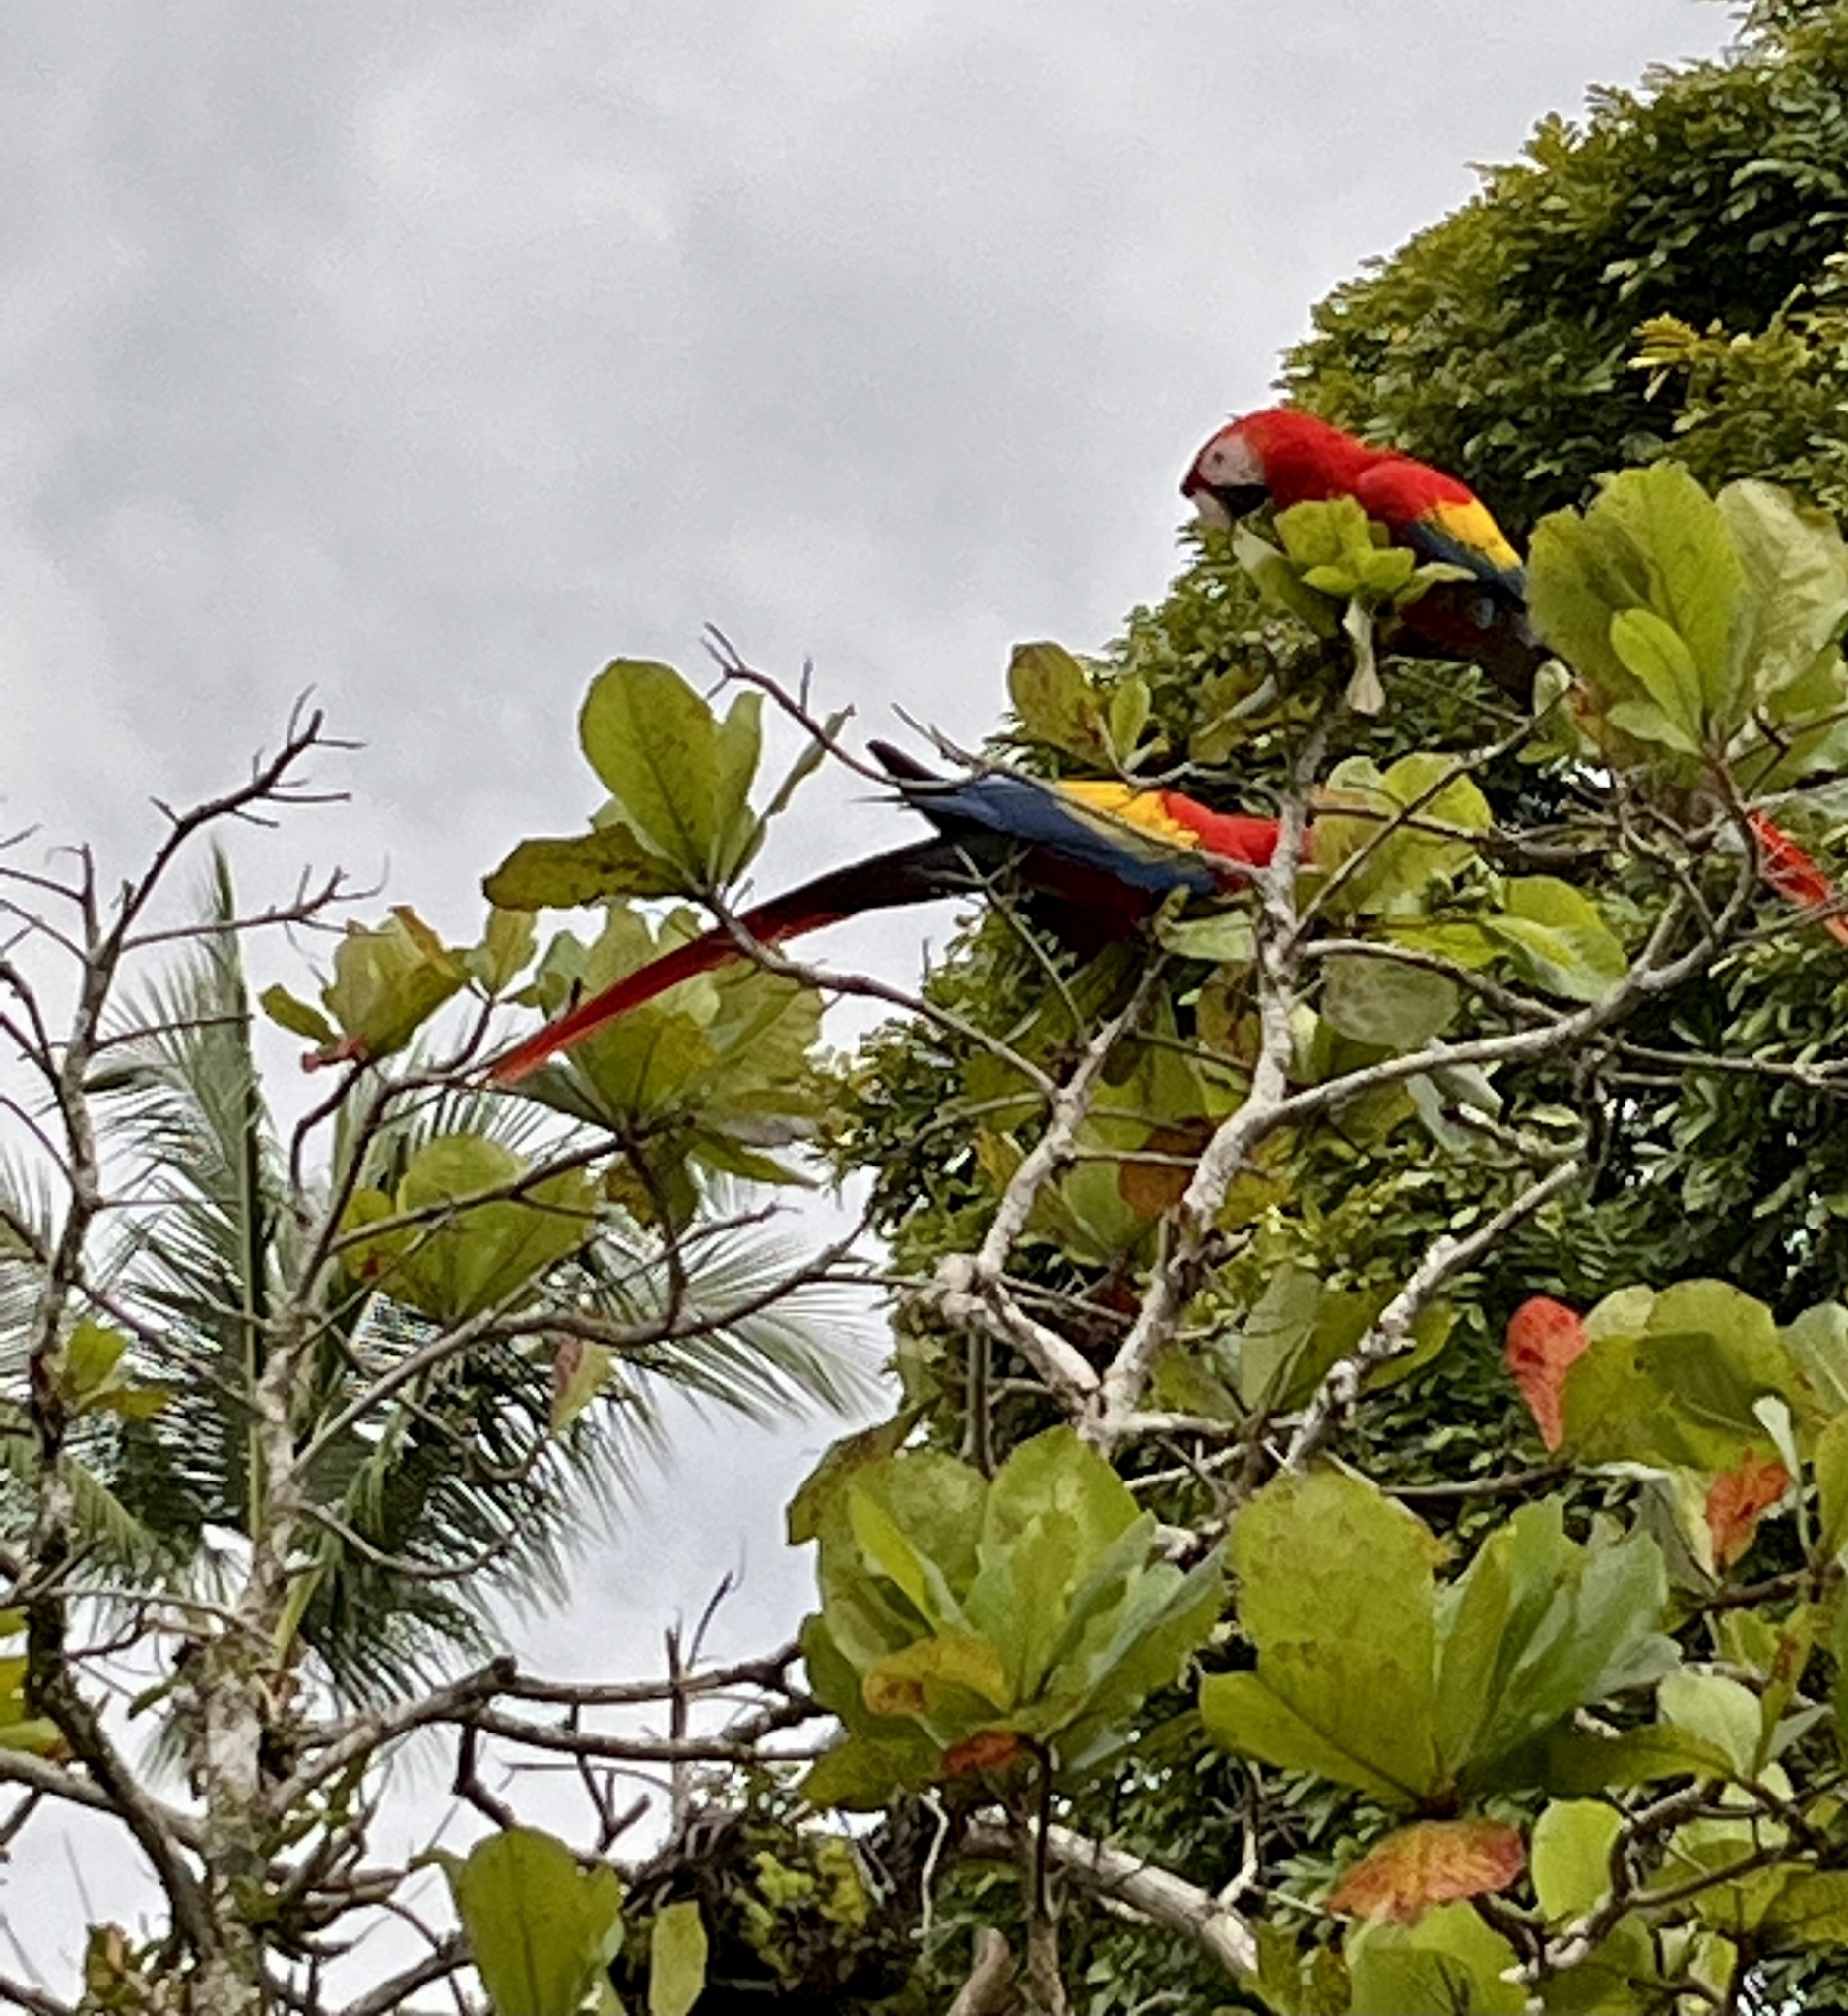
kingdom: Animalia
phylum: Chordata
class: Aves
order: Psittaciformes
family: Psittacidae
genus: Ara
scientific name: Ara macao
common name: Scarlet macaw
